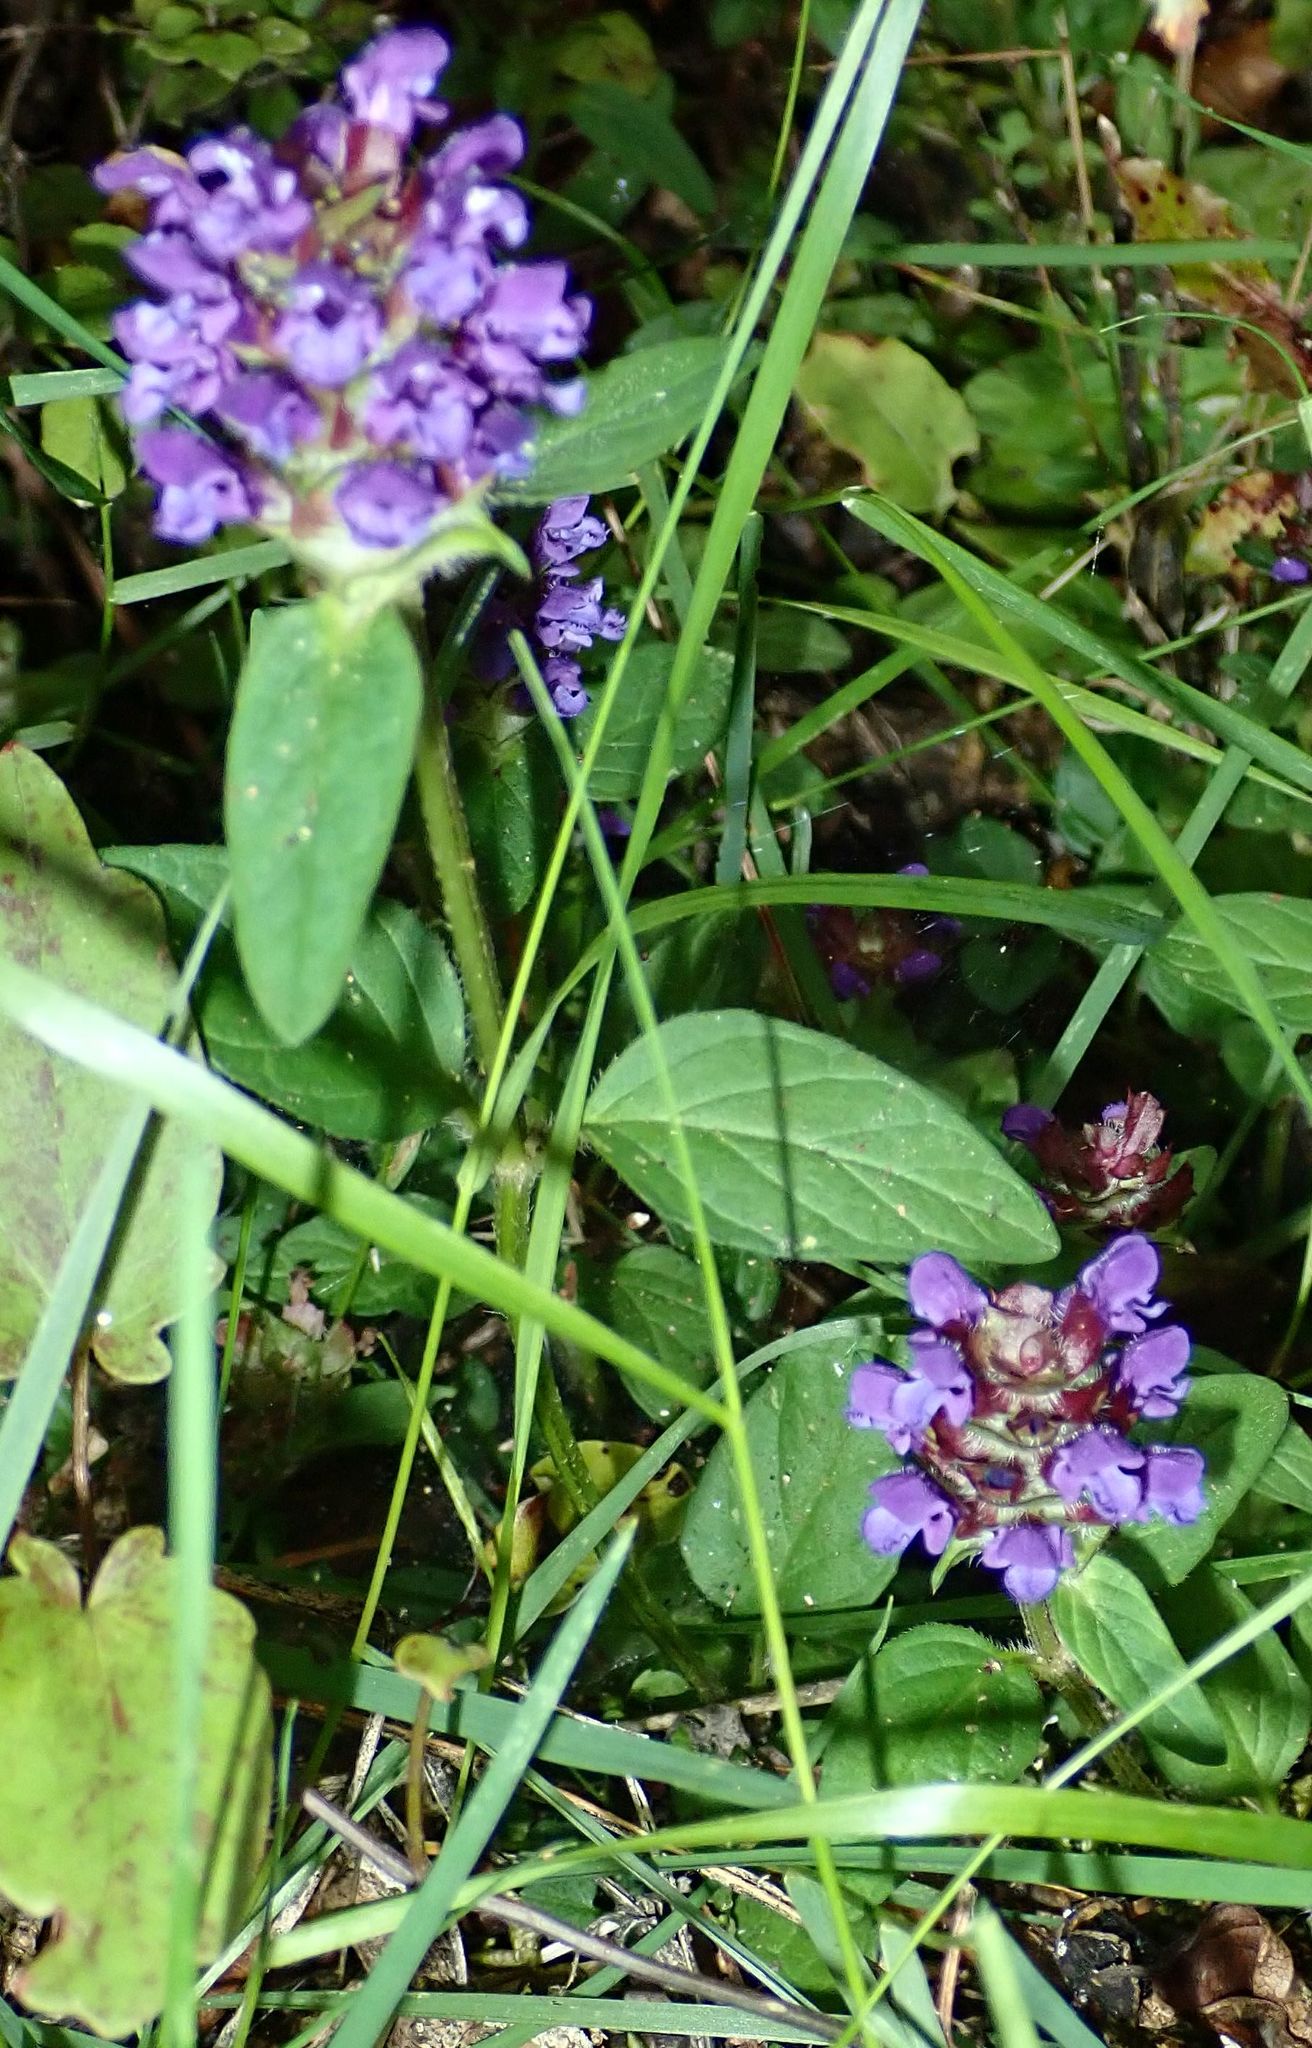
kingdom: Plantae
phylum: Tracheophyta
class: Magnoliopsida
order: Lamiales
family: Lamiaceae
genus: Prunella
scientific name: Prunella vulgaris
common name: Heal-all
